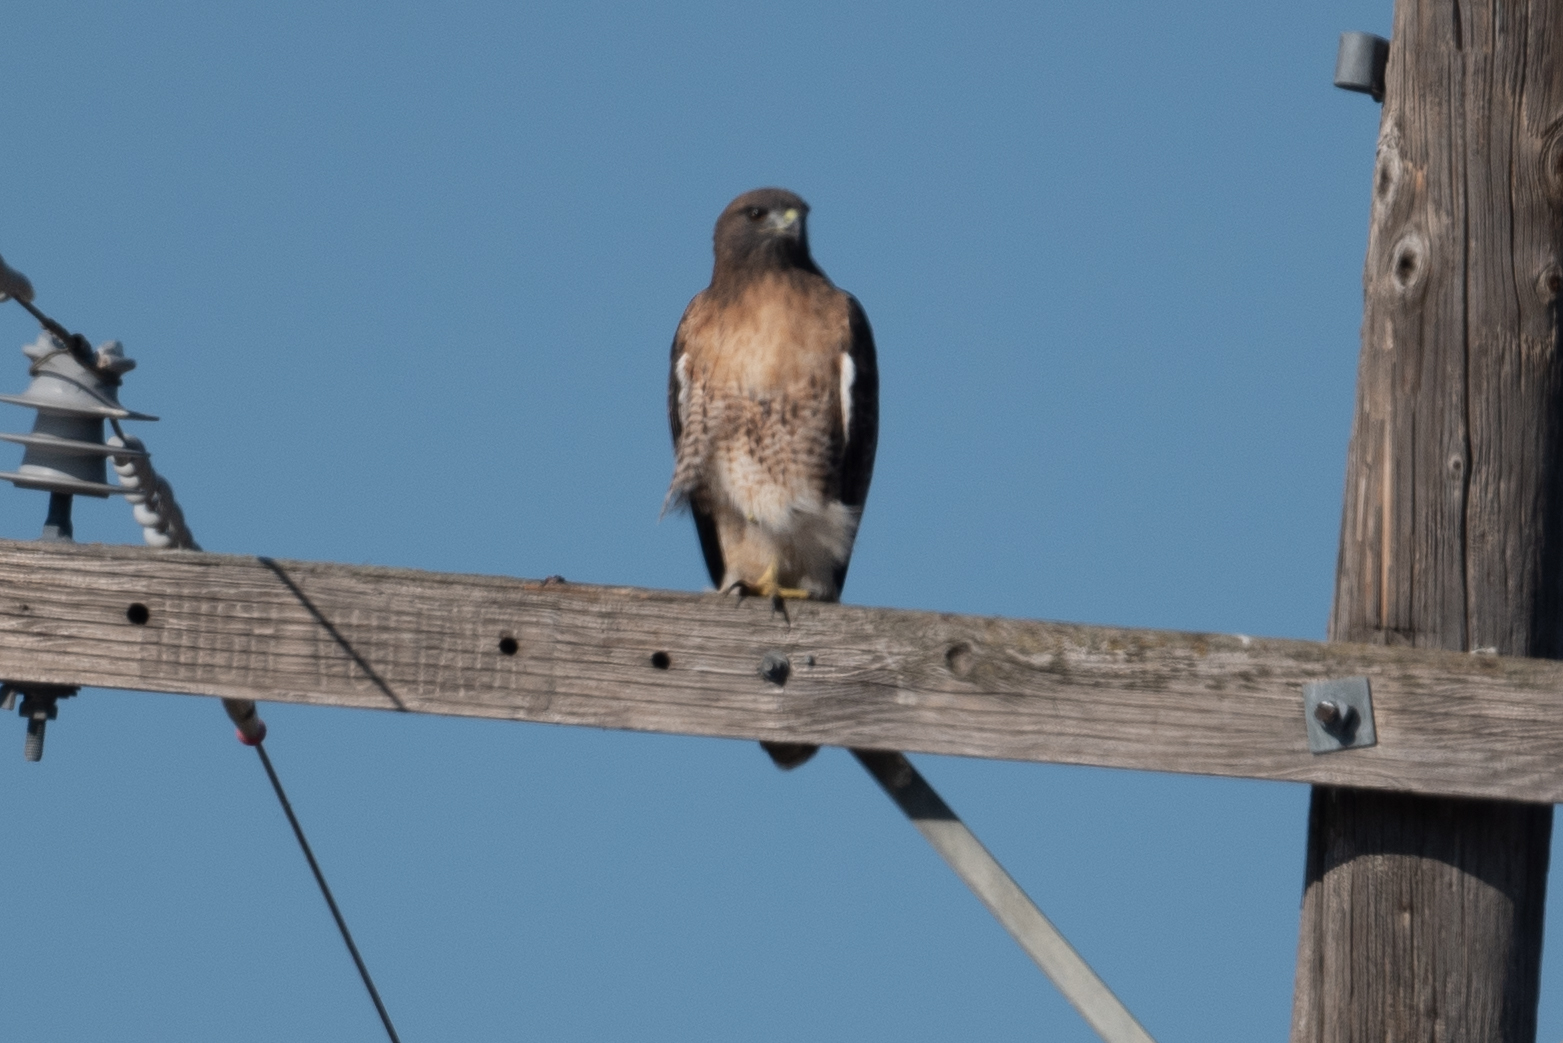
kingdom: Animalia
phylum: Chordata
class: Aves
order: Accipitriformes
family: Accipitridae
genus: Buteo
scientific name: Buteo jamaicensis
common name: Red-tailed hawk
